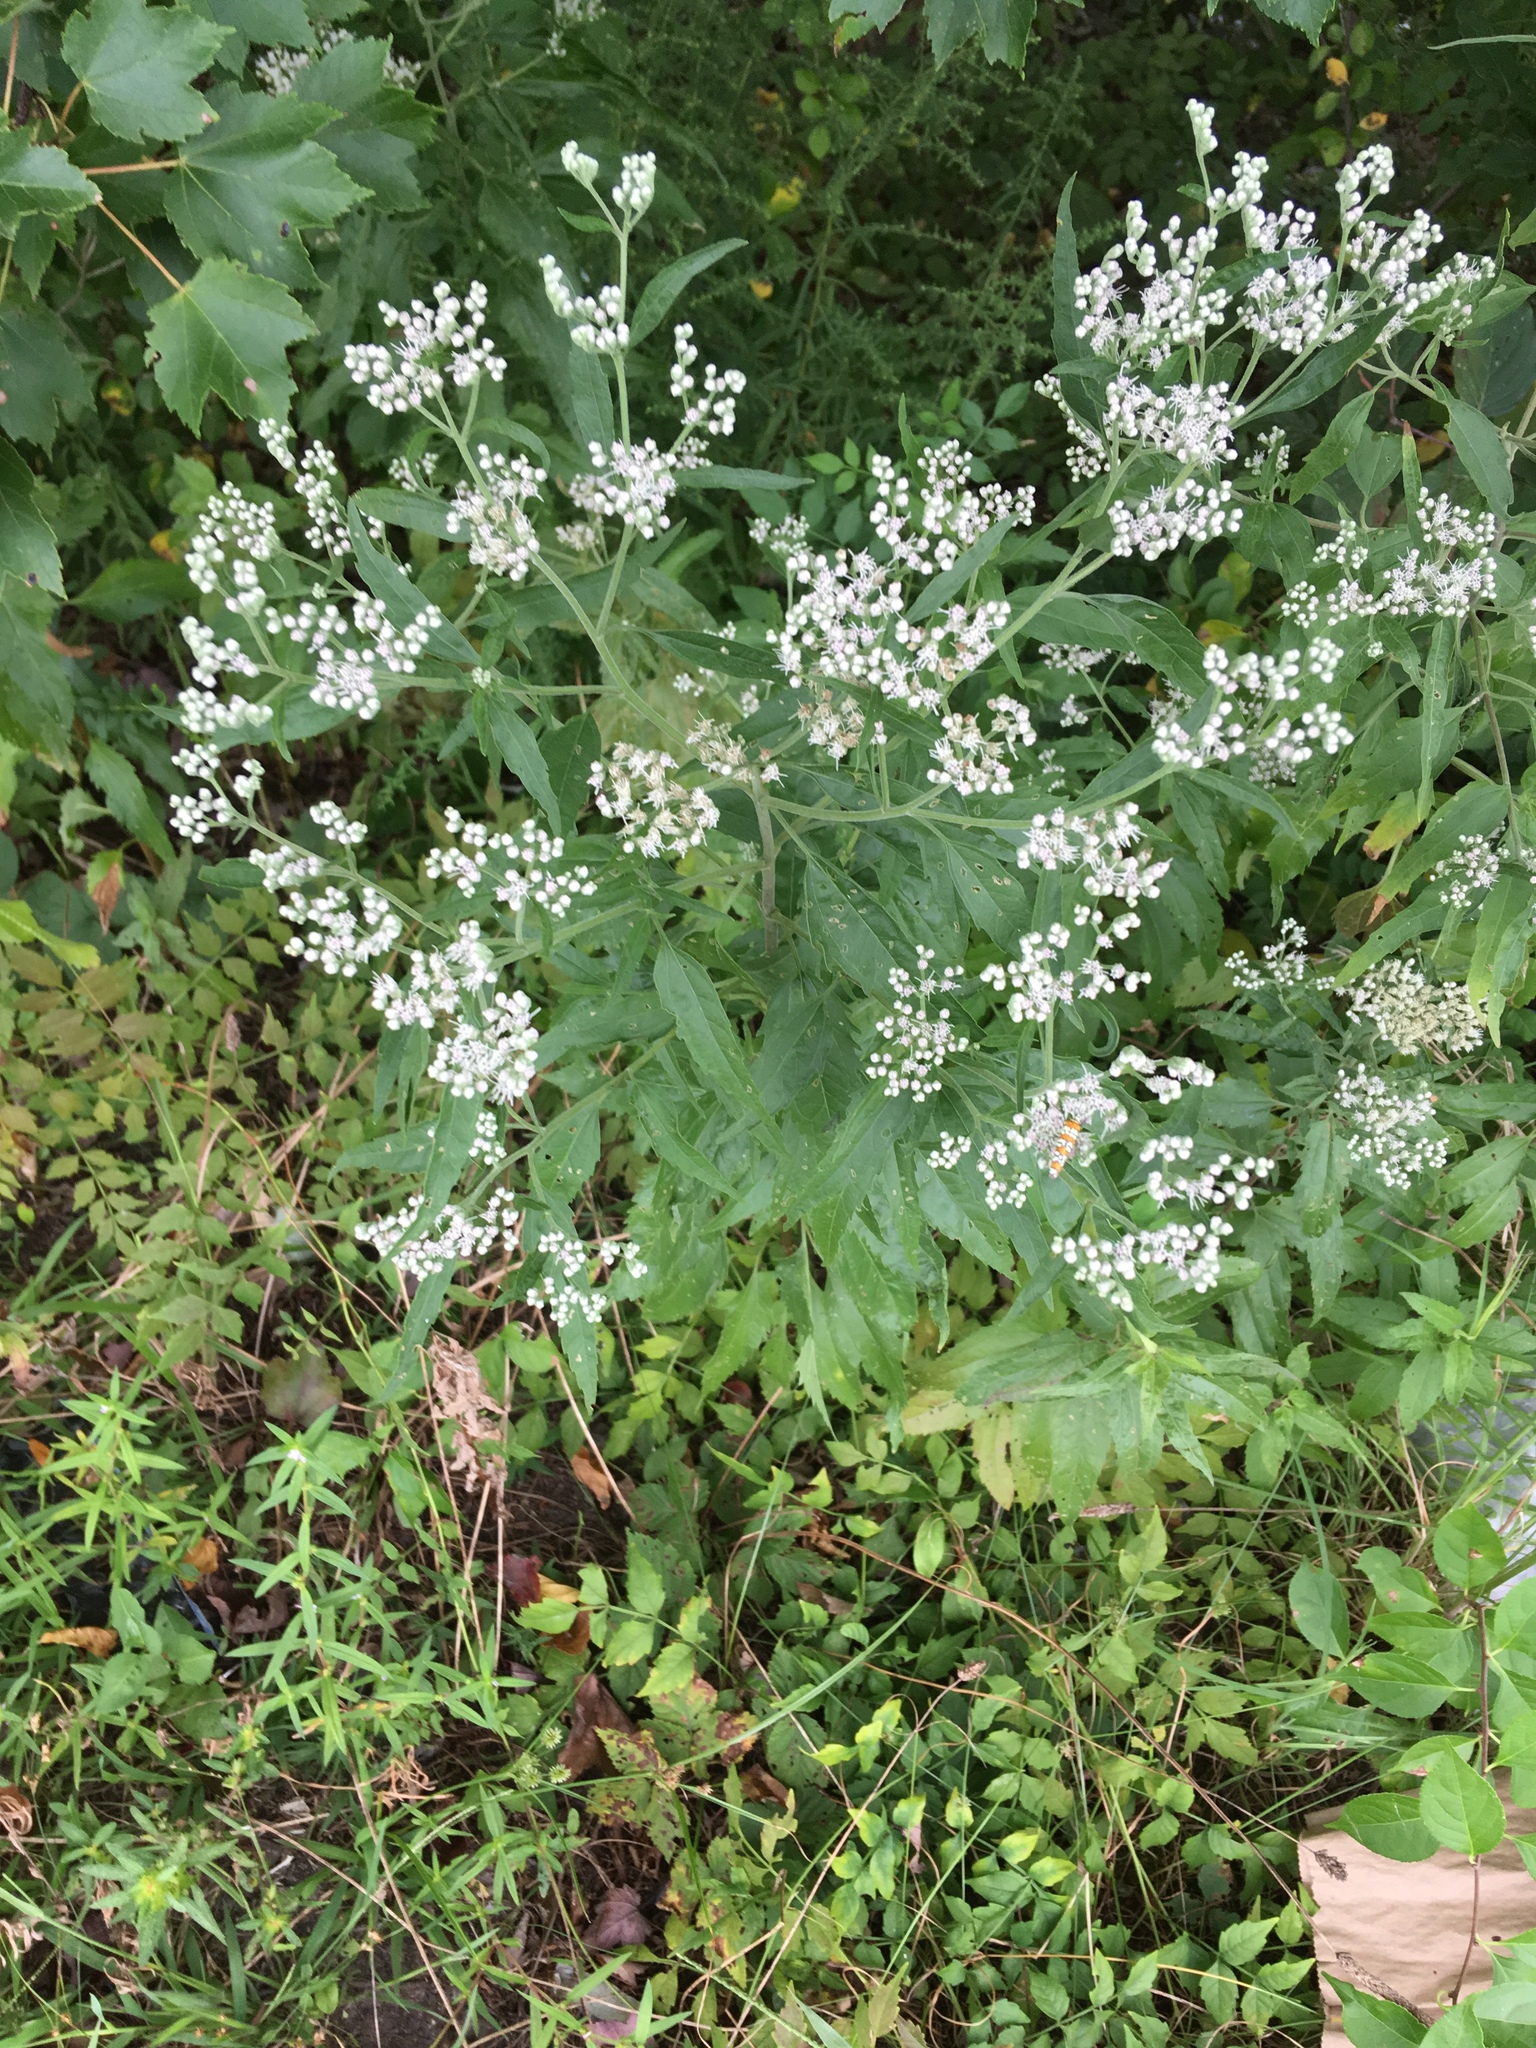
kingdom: Plantae
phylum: Tracheophyta
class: Magnoliopsida
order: Asterales
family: Asteraceae
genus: Eupatorium
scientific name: Eupatorium serotinum
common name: Late boneset
